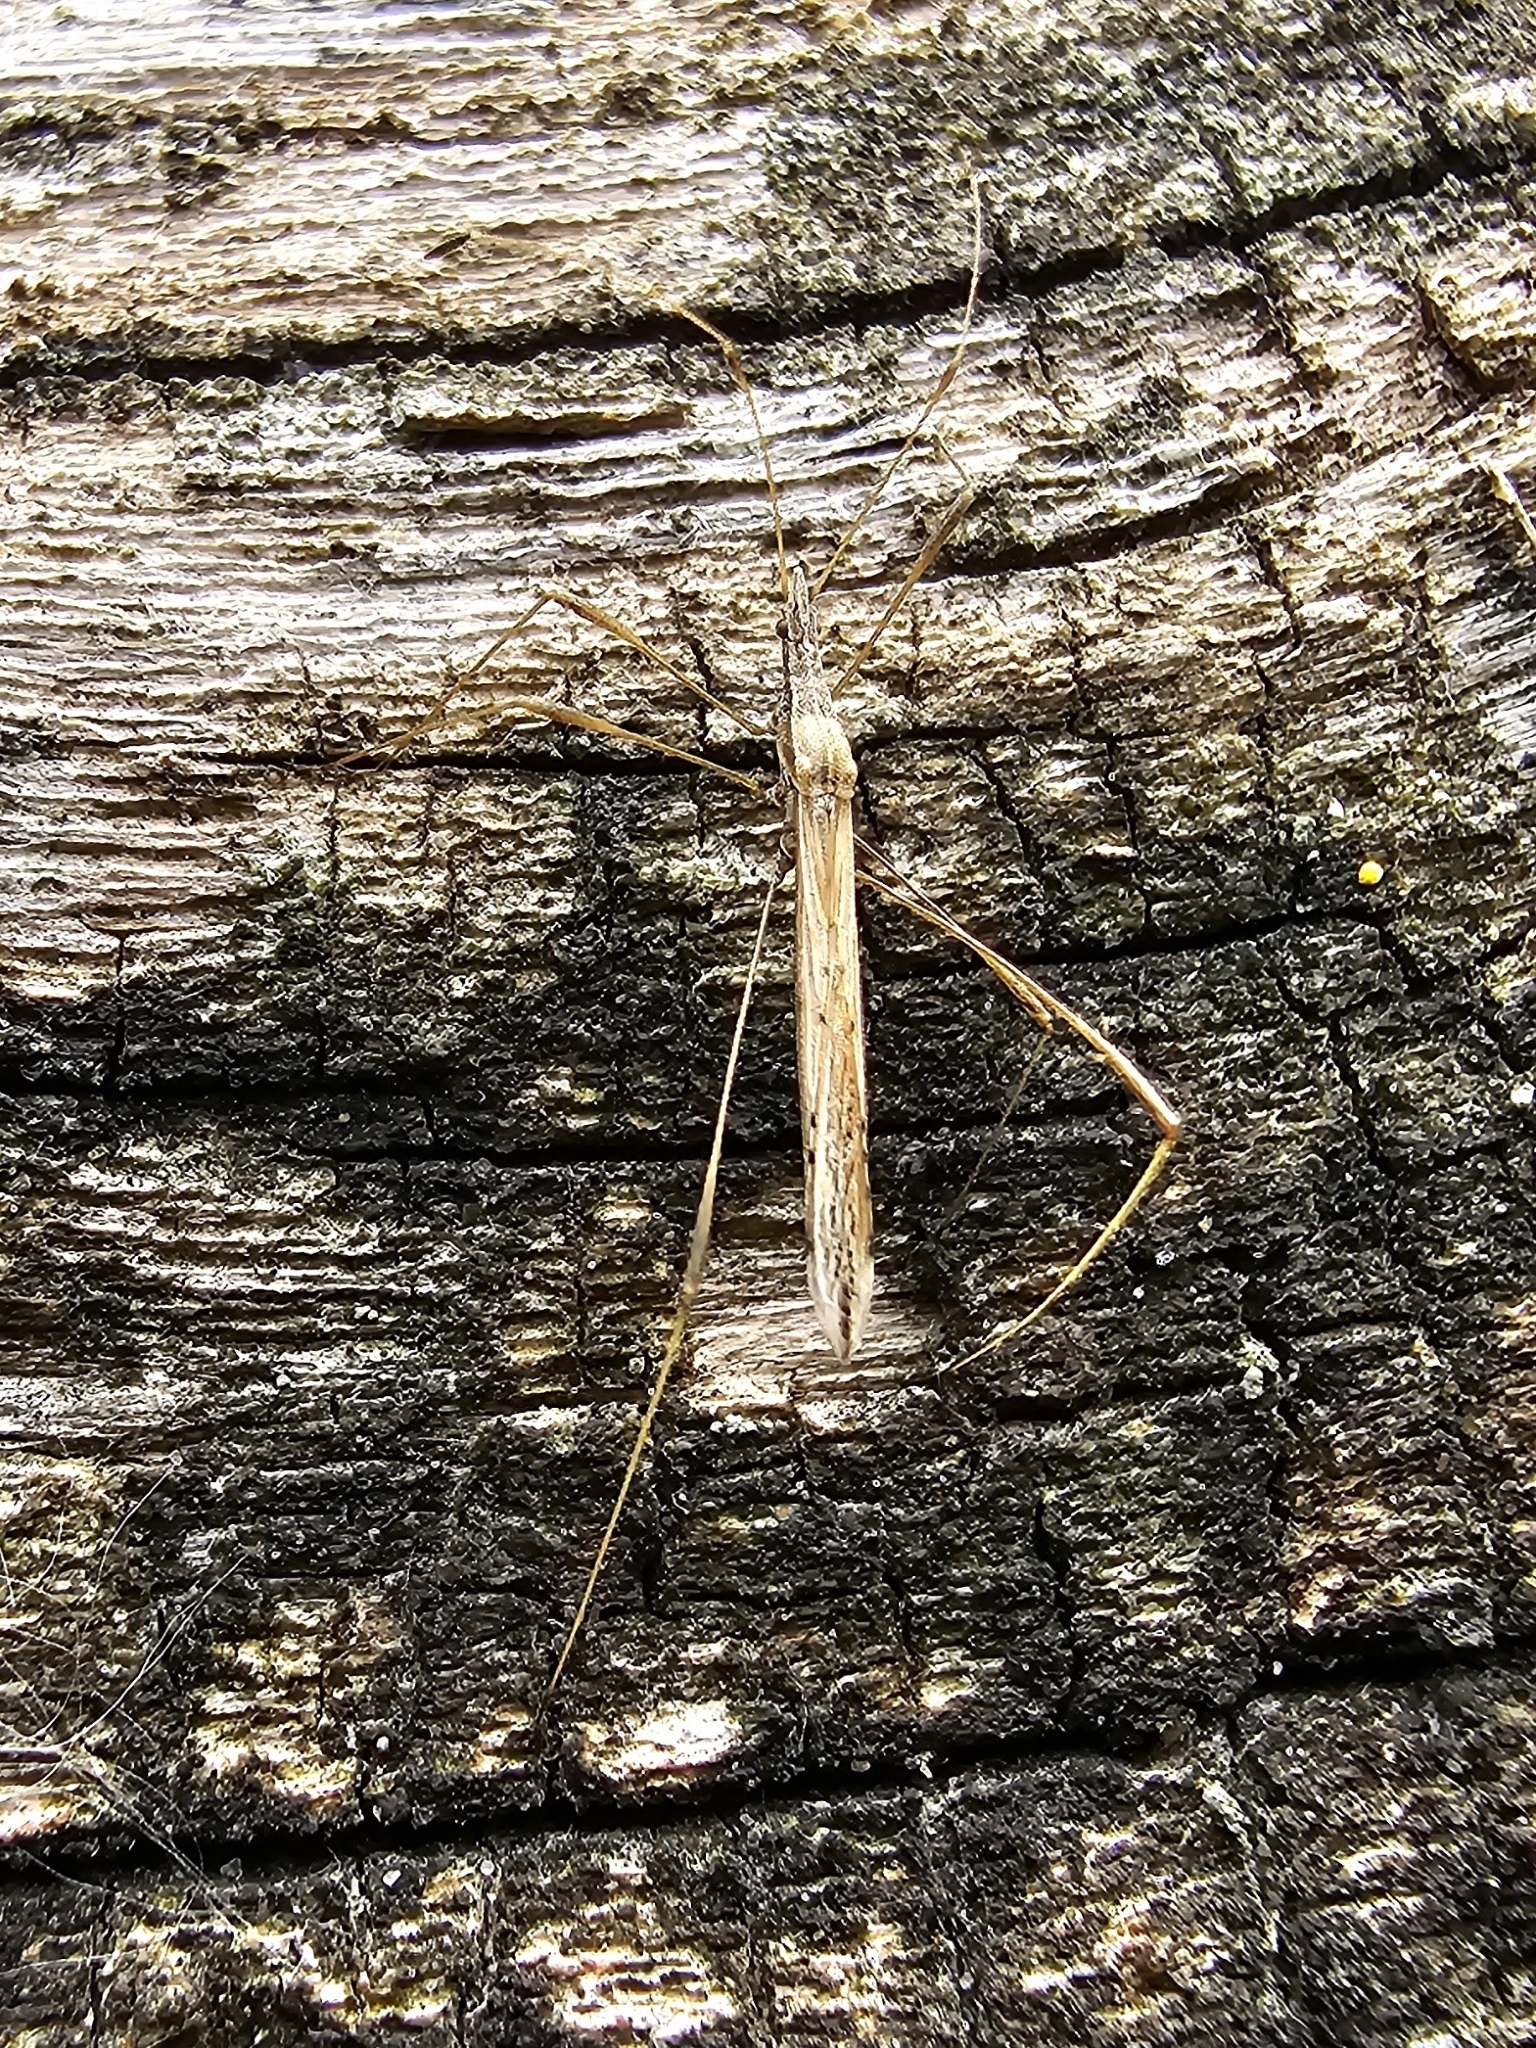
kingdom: Animalia
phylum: Arthropoda
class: Insecta
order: Hemiptera
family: Berytidae
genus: Neides
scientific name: Neides tipularius
